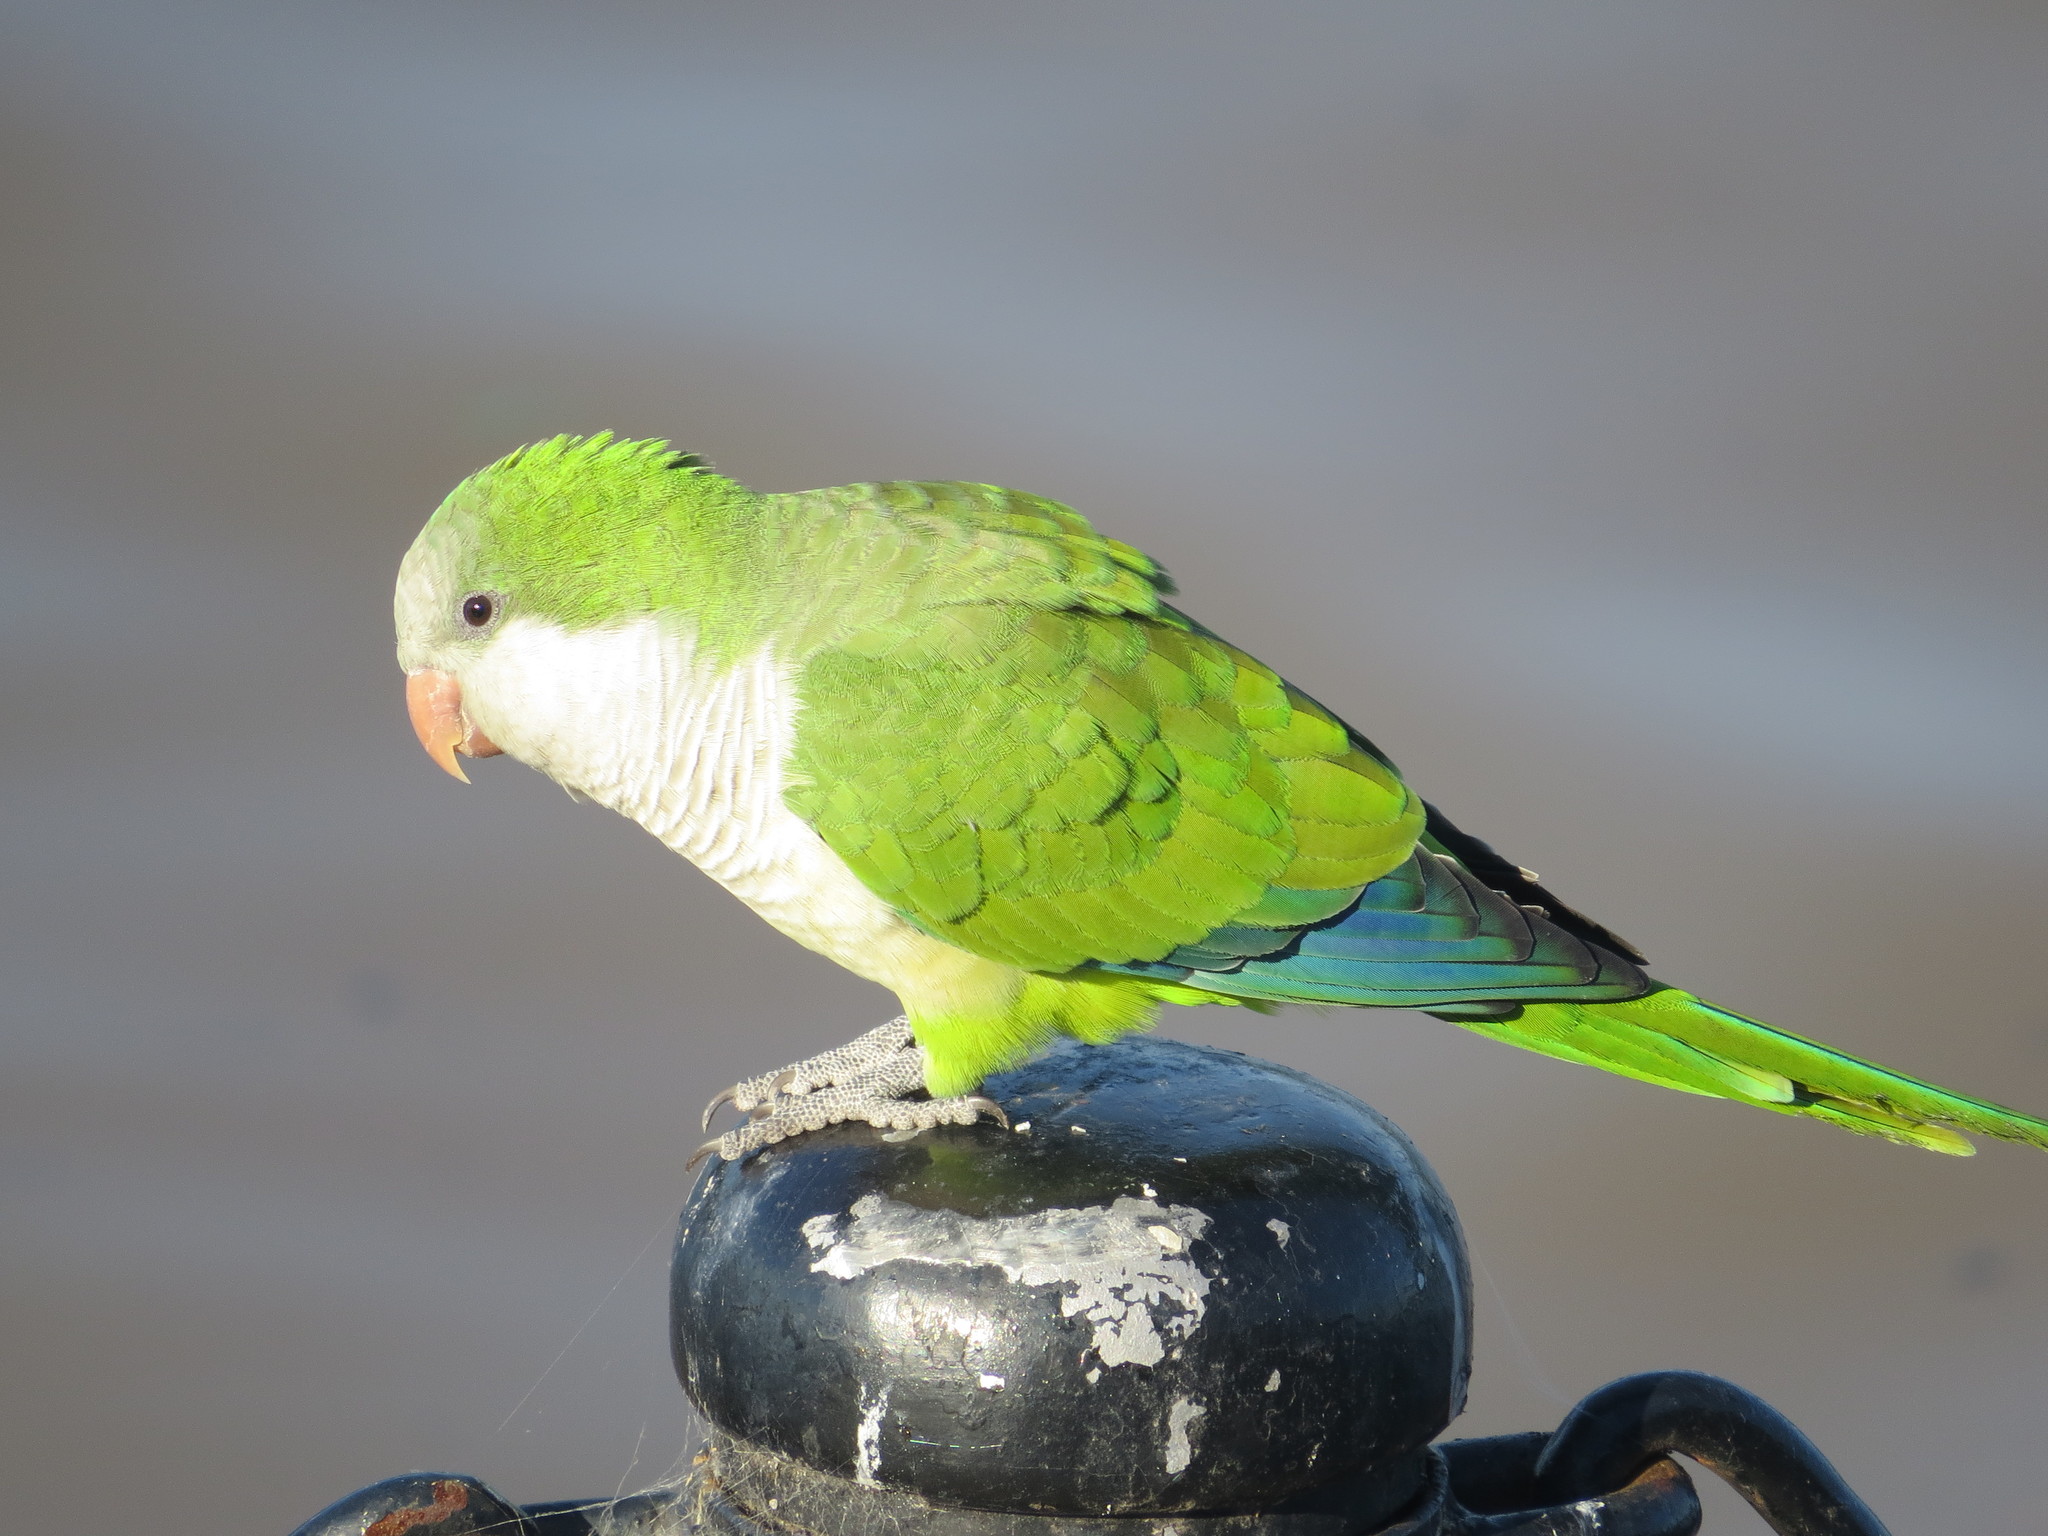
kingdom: Animalia
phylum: Chordata
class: Aves
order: Psittaciformes
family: Psittacidae
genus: Myiopsitta
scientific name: Myiopsitta monachus
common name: Monk parakeet
